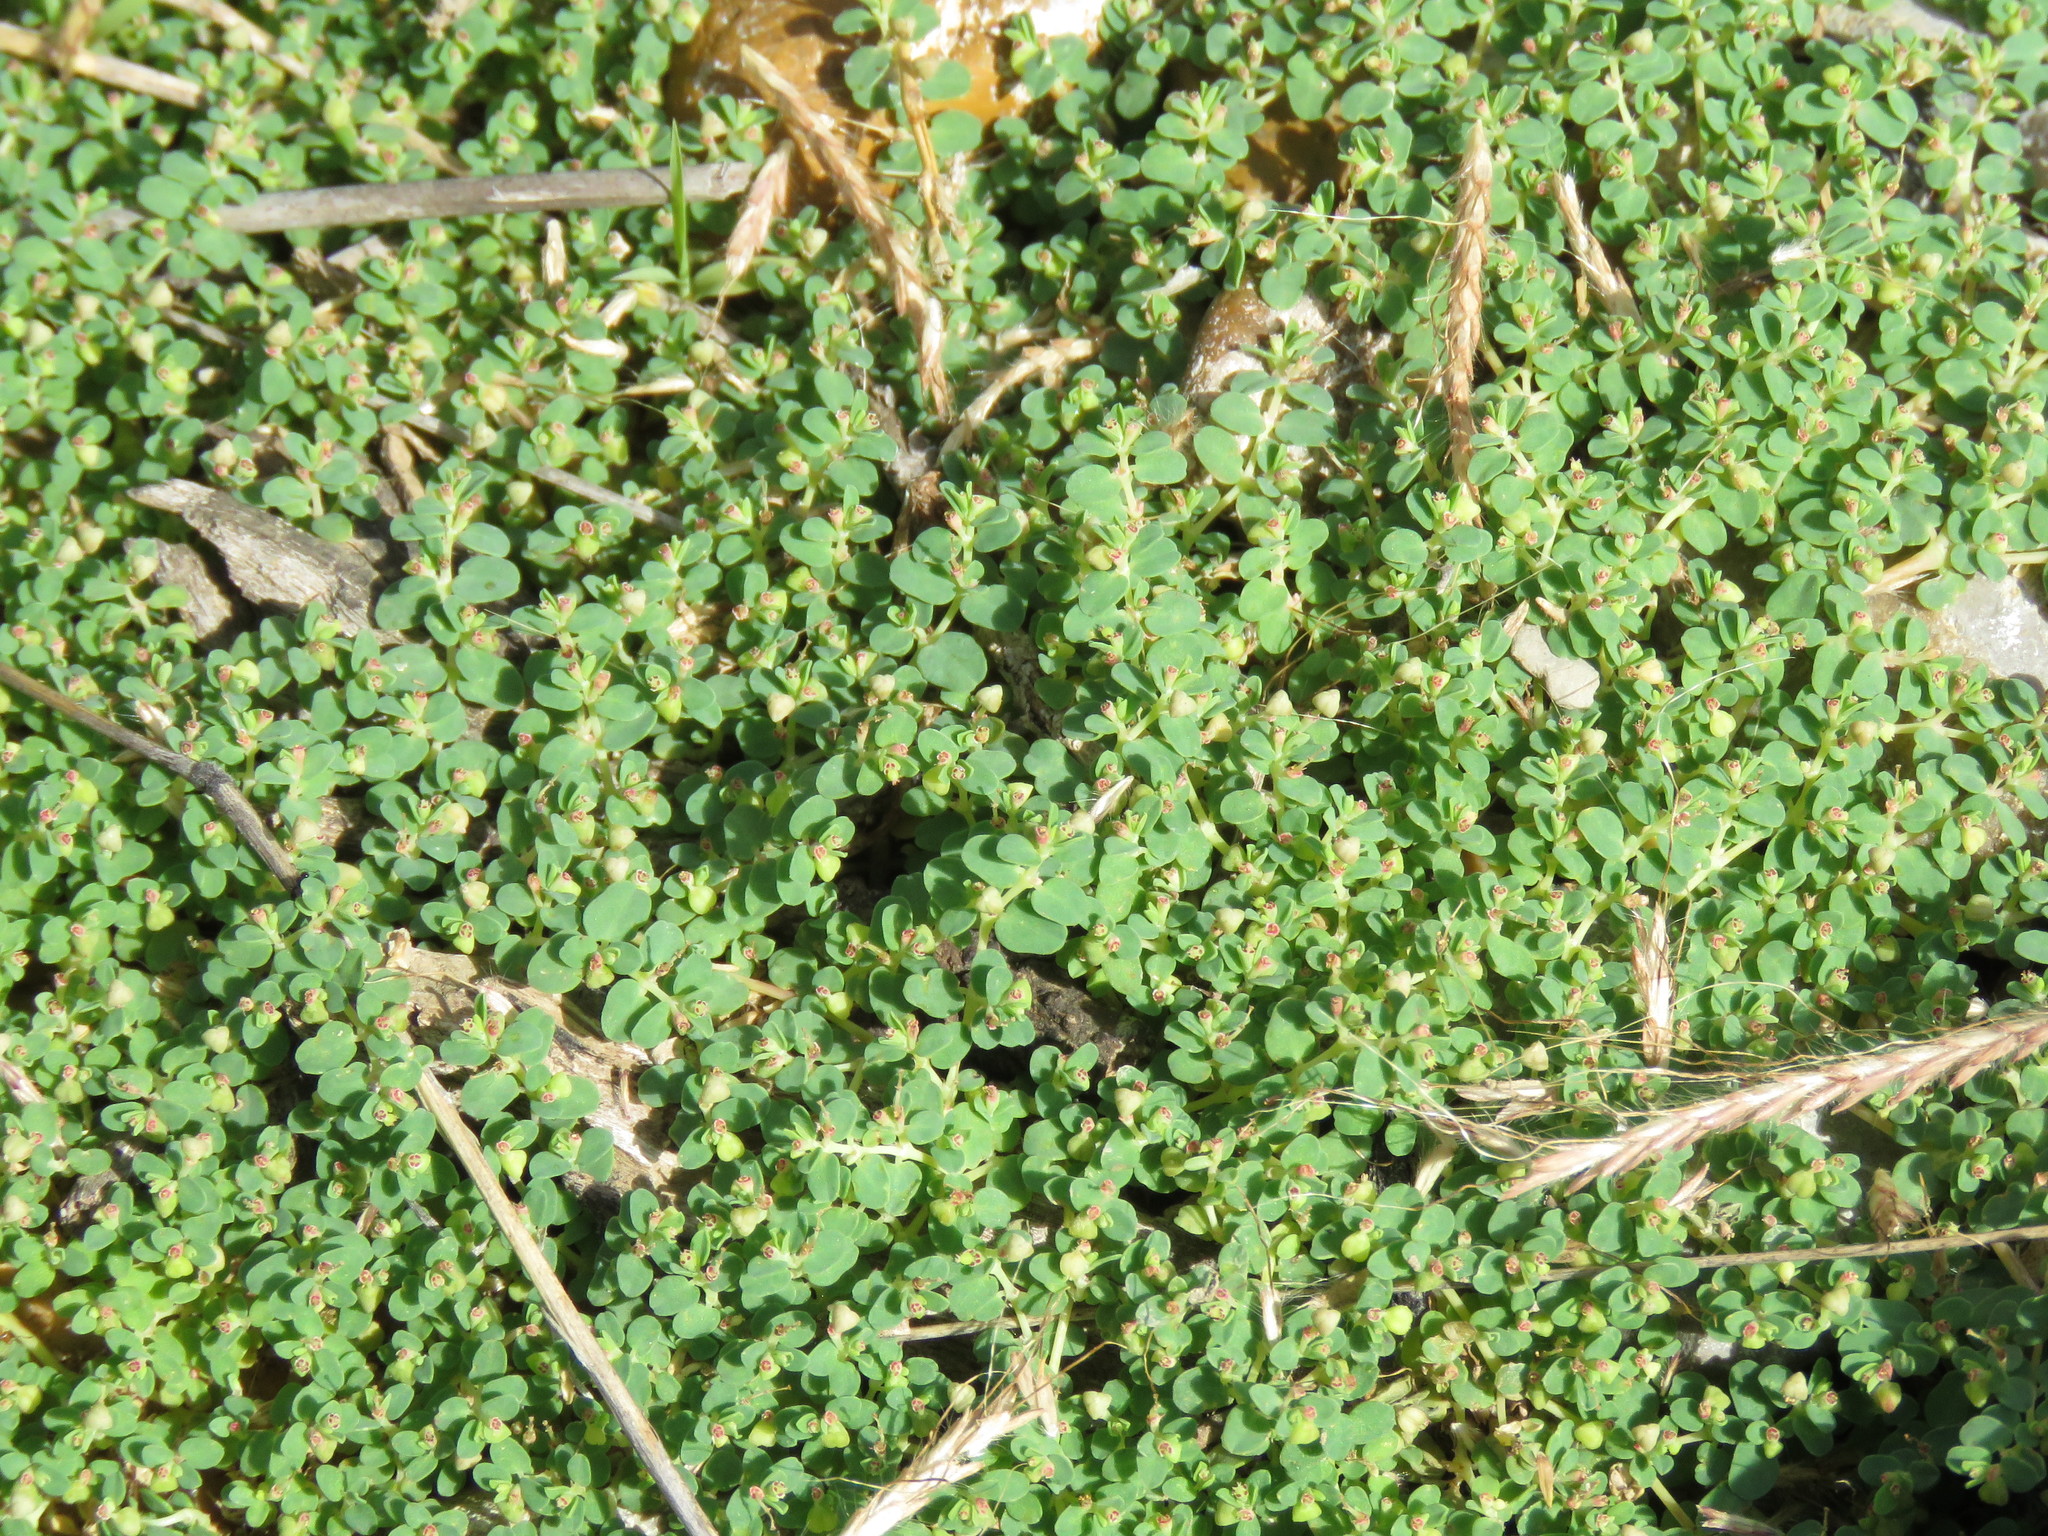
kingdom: Plantae
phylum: Tracheophyta
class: Magnoliopsida
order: Malpighiales
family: Euphorbiaceae
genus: Euphorbia
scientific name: Euphorbia serpens
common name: Matted sandmat
